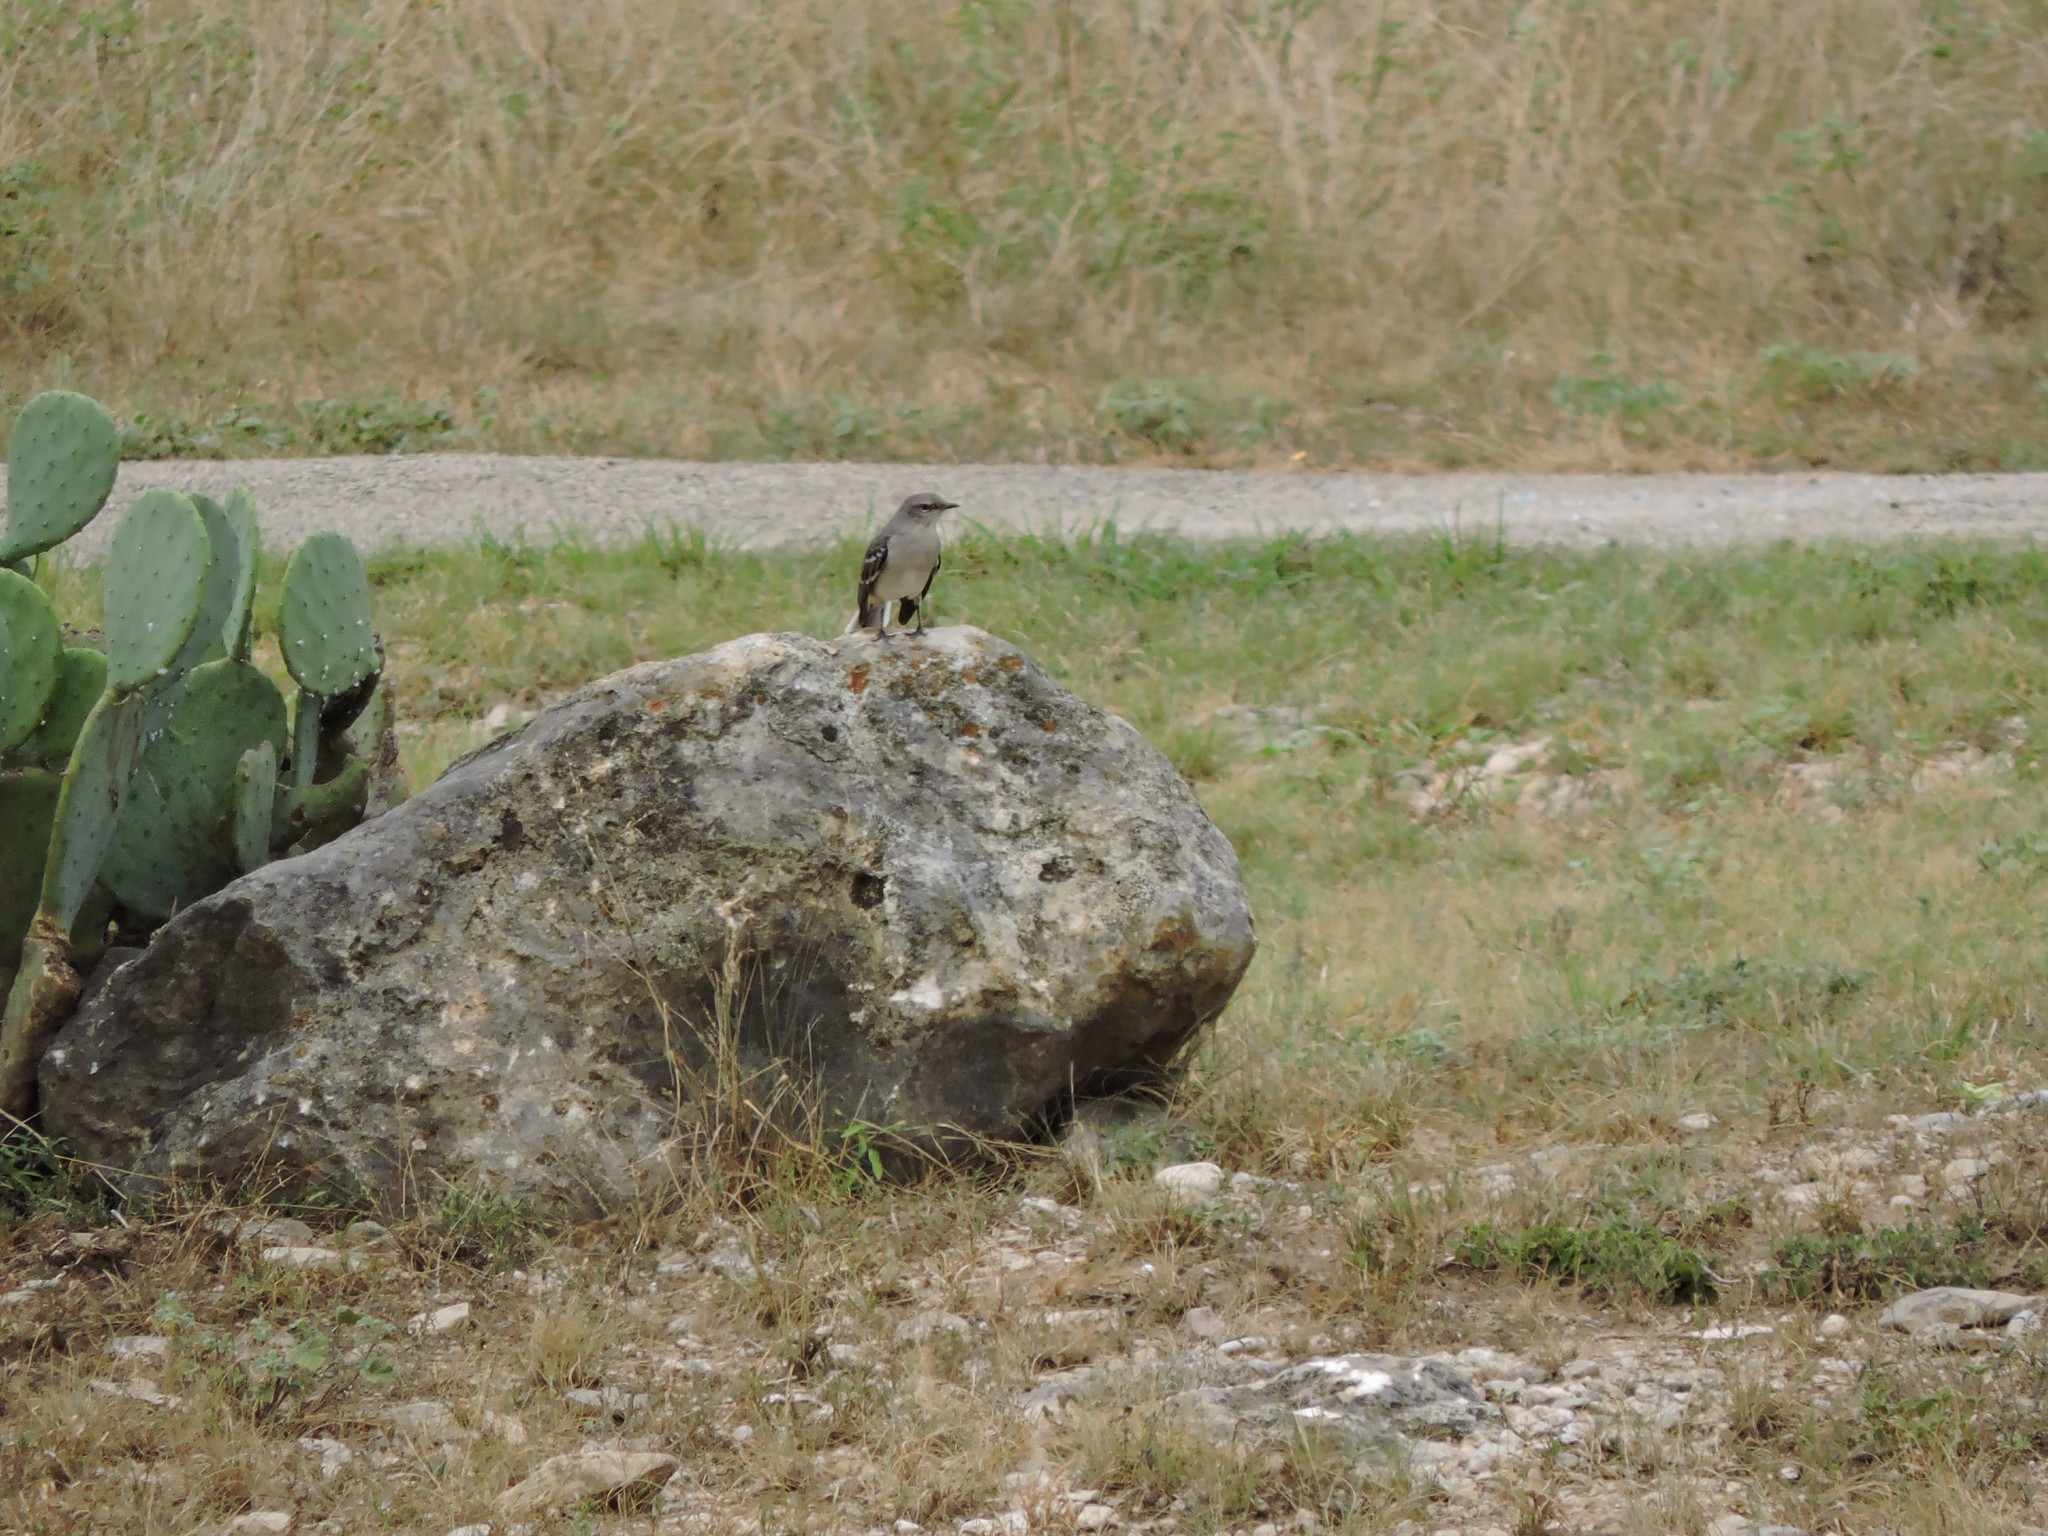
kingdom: Animalia
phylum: Chordata
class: Aves
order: Passeriformes
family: Mimidae
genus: Mimus
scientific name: Mimus polyglottos
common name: Northern mockingbird
